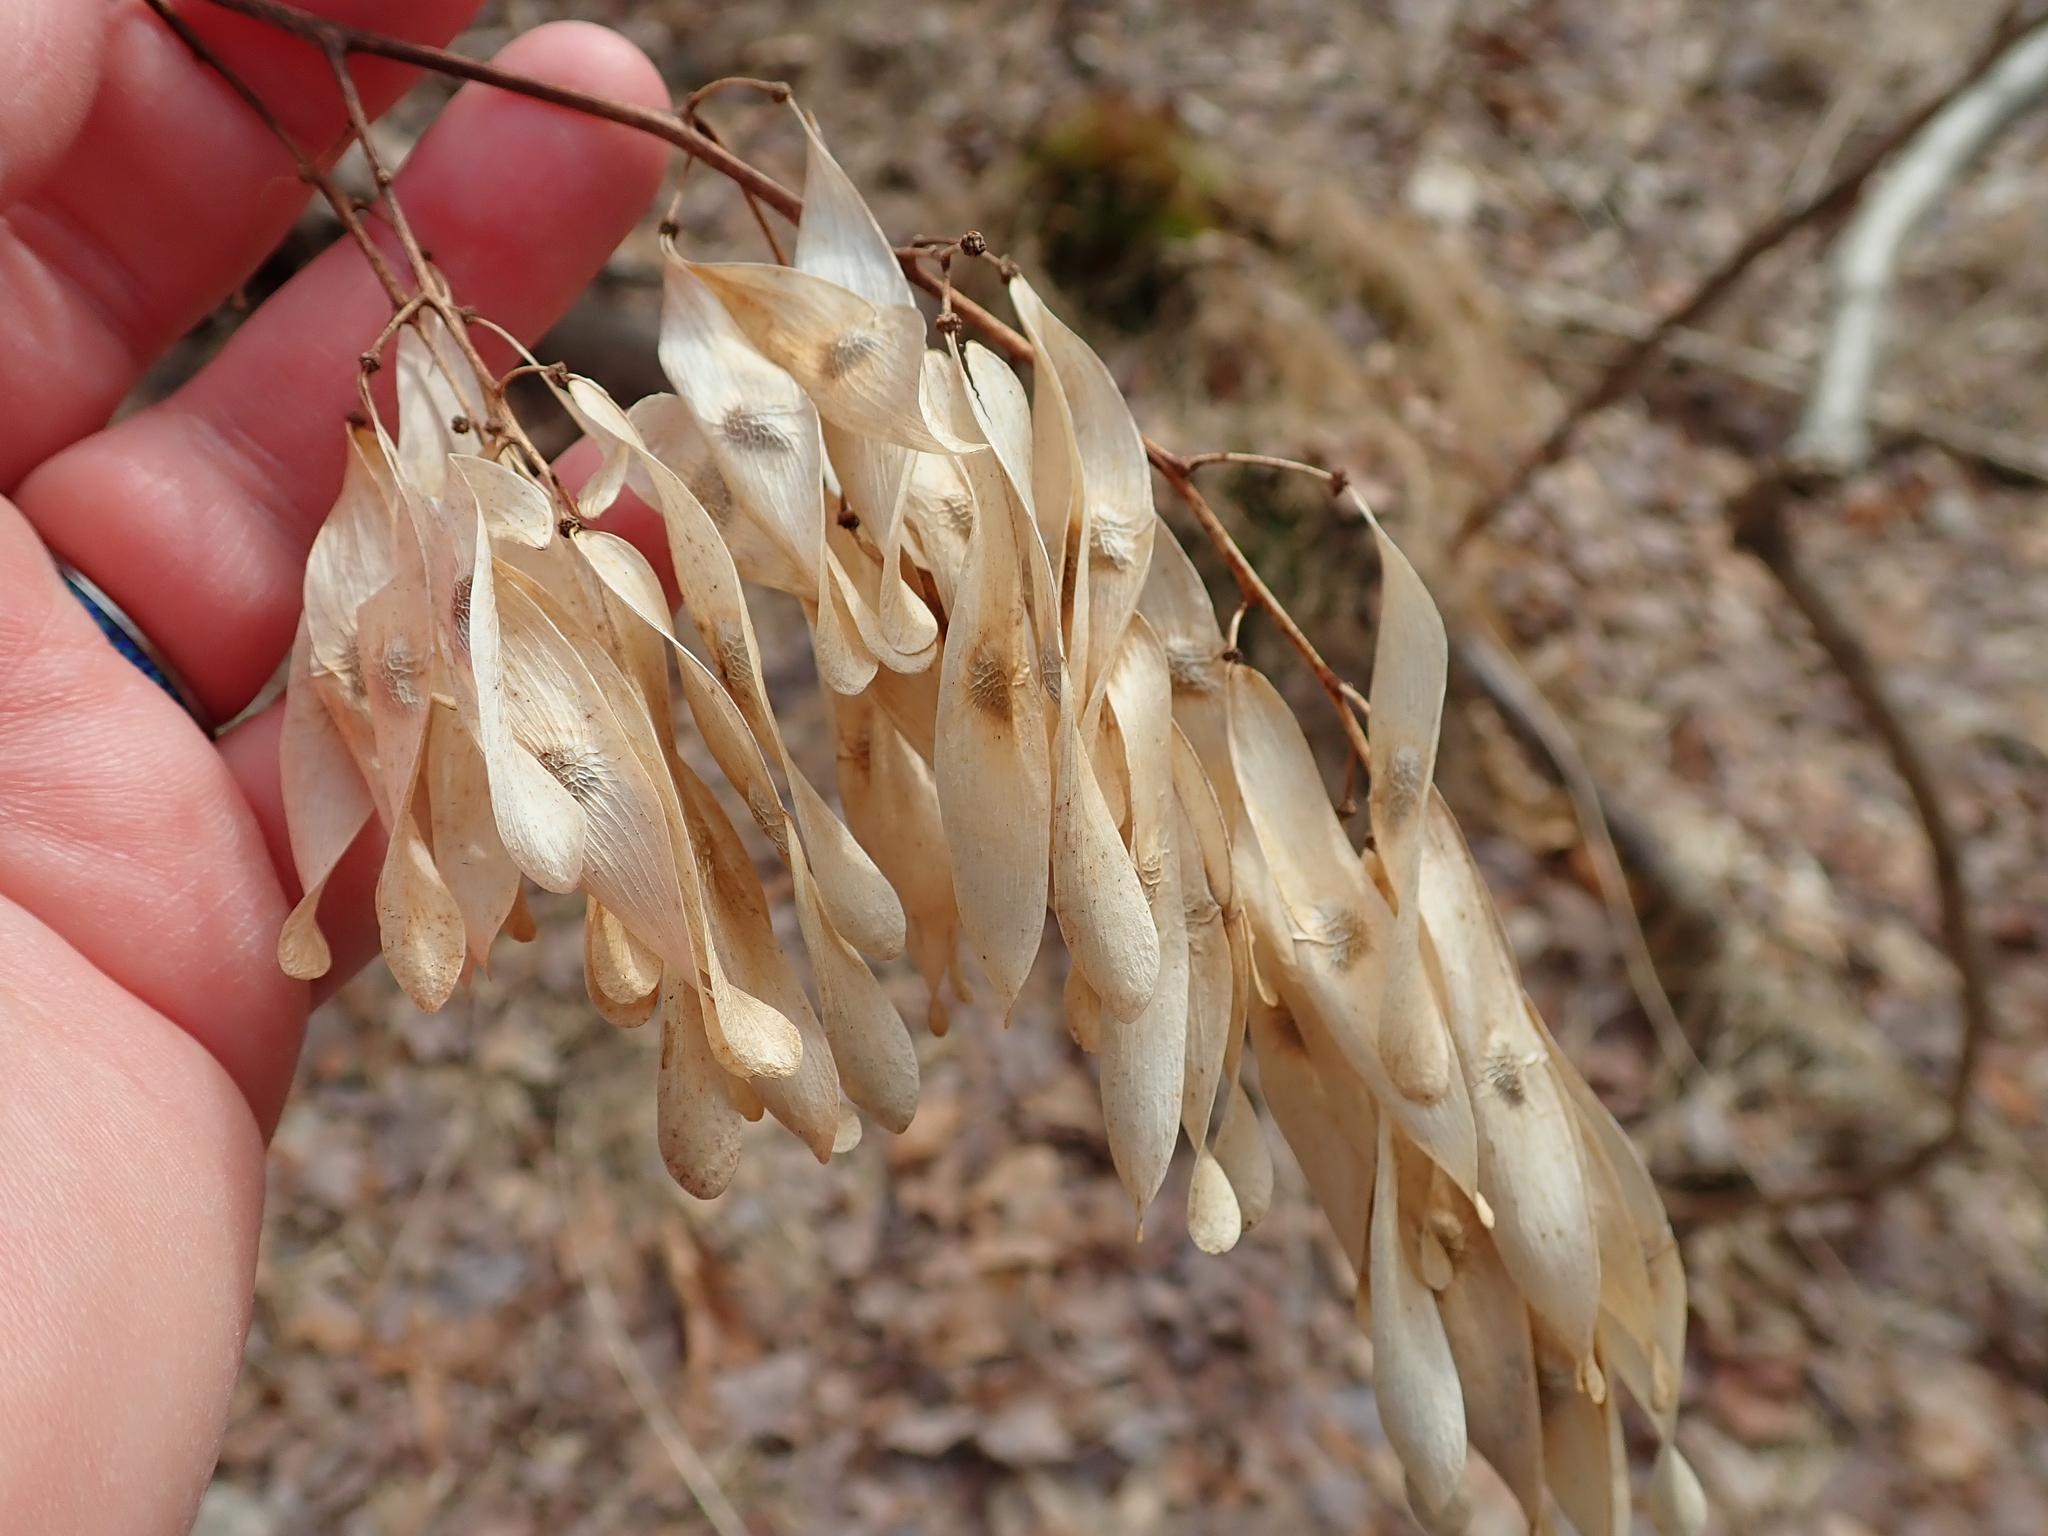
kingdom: Plantae
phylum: Tracheophyta
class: Magnoliopsida
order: Sapindales
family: Simaroubaceae
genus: Ailanthus
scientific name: Ailanthus altissima
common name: Tree-of-heaven
